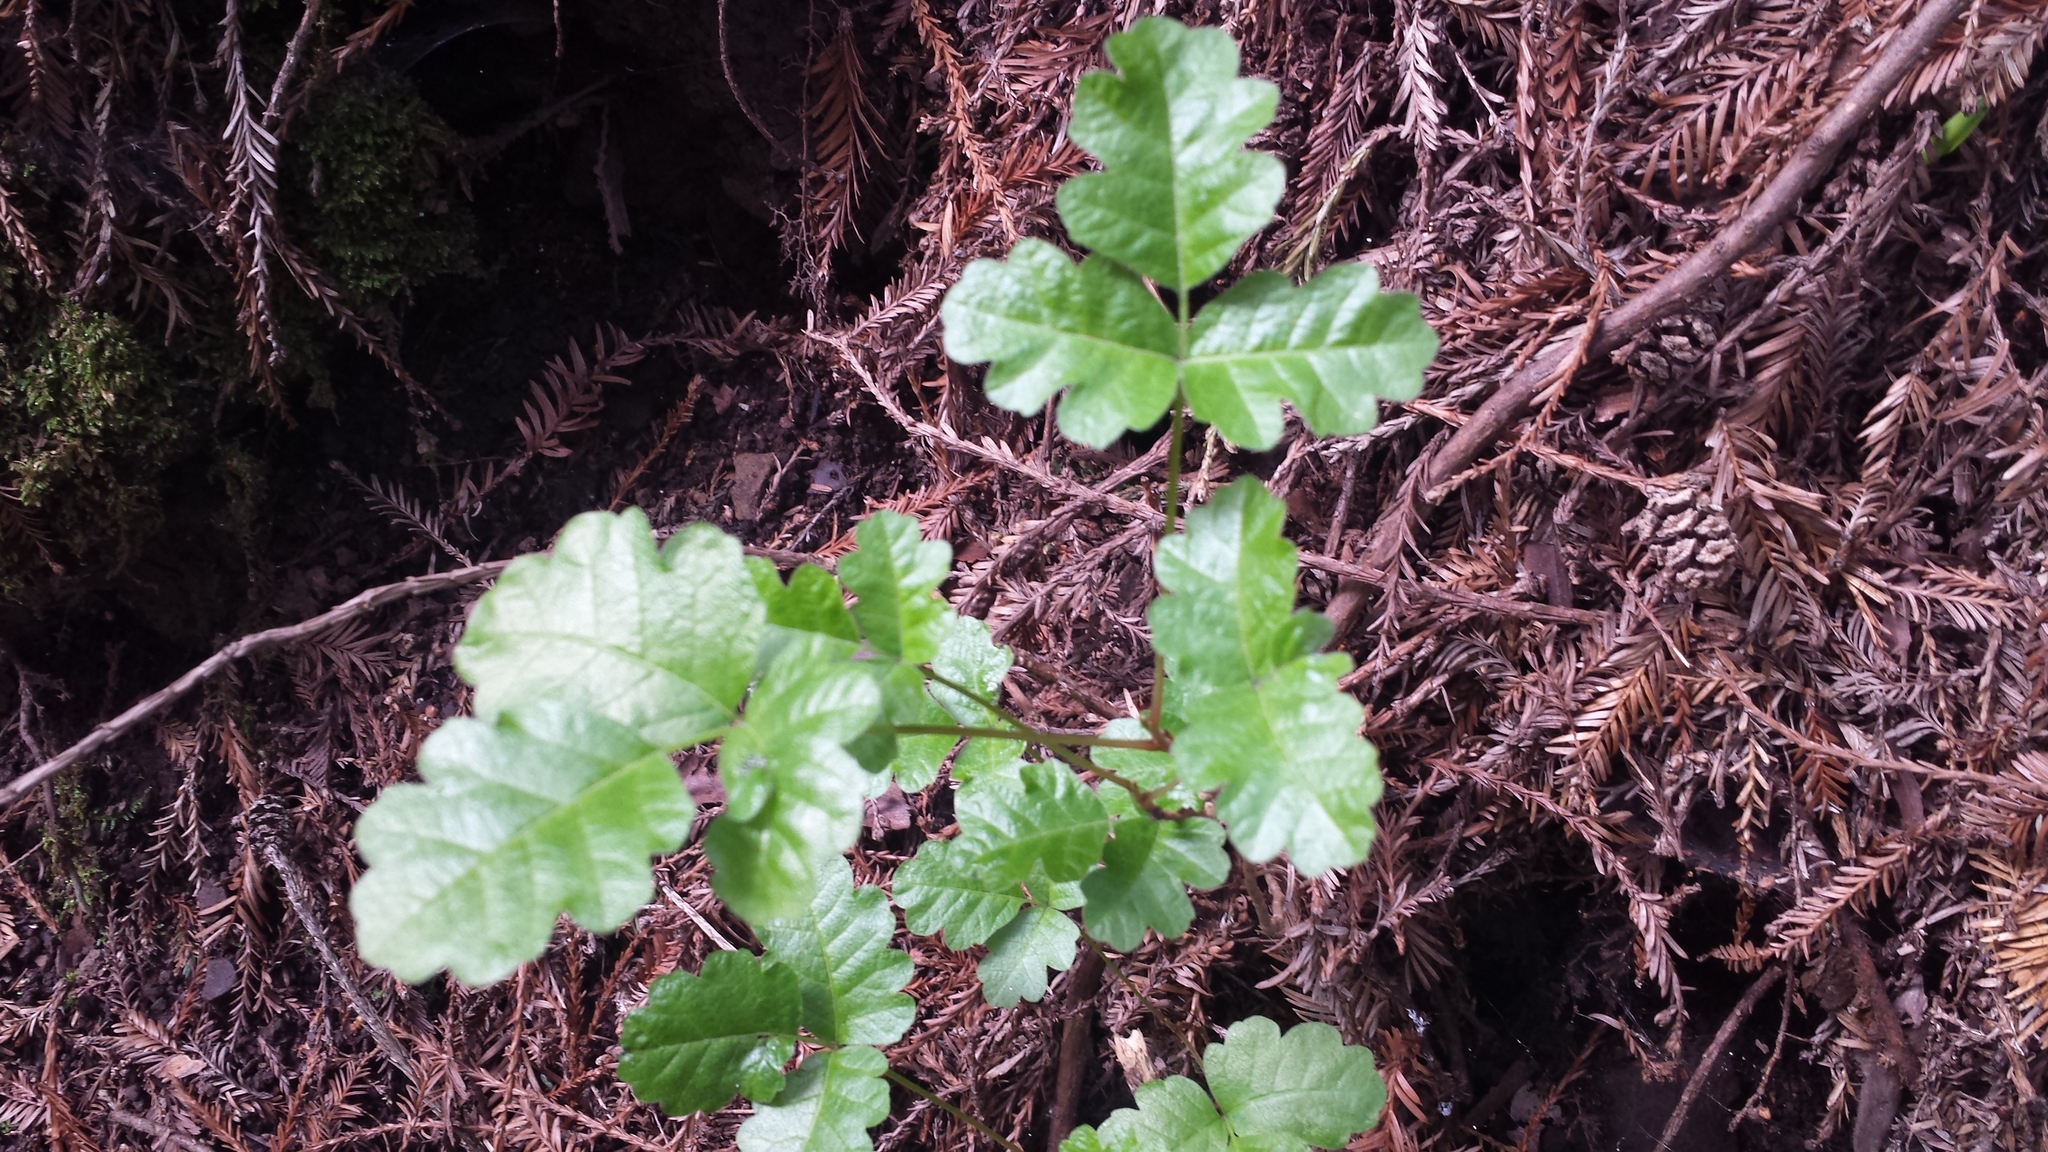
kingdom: Plantae
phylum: Tracheophyta
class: Magnoliopsida
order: Sapindales
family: Anacardiaceae
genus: Toxicodendron
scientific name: Toxicodendron diversilobum
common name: Pacific poison-oak
